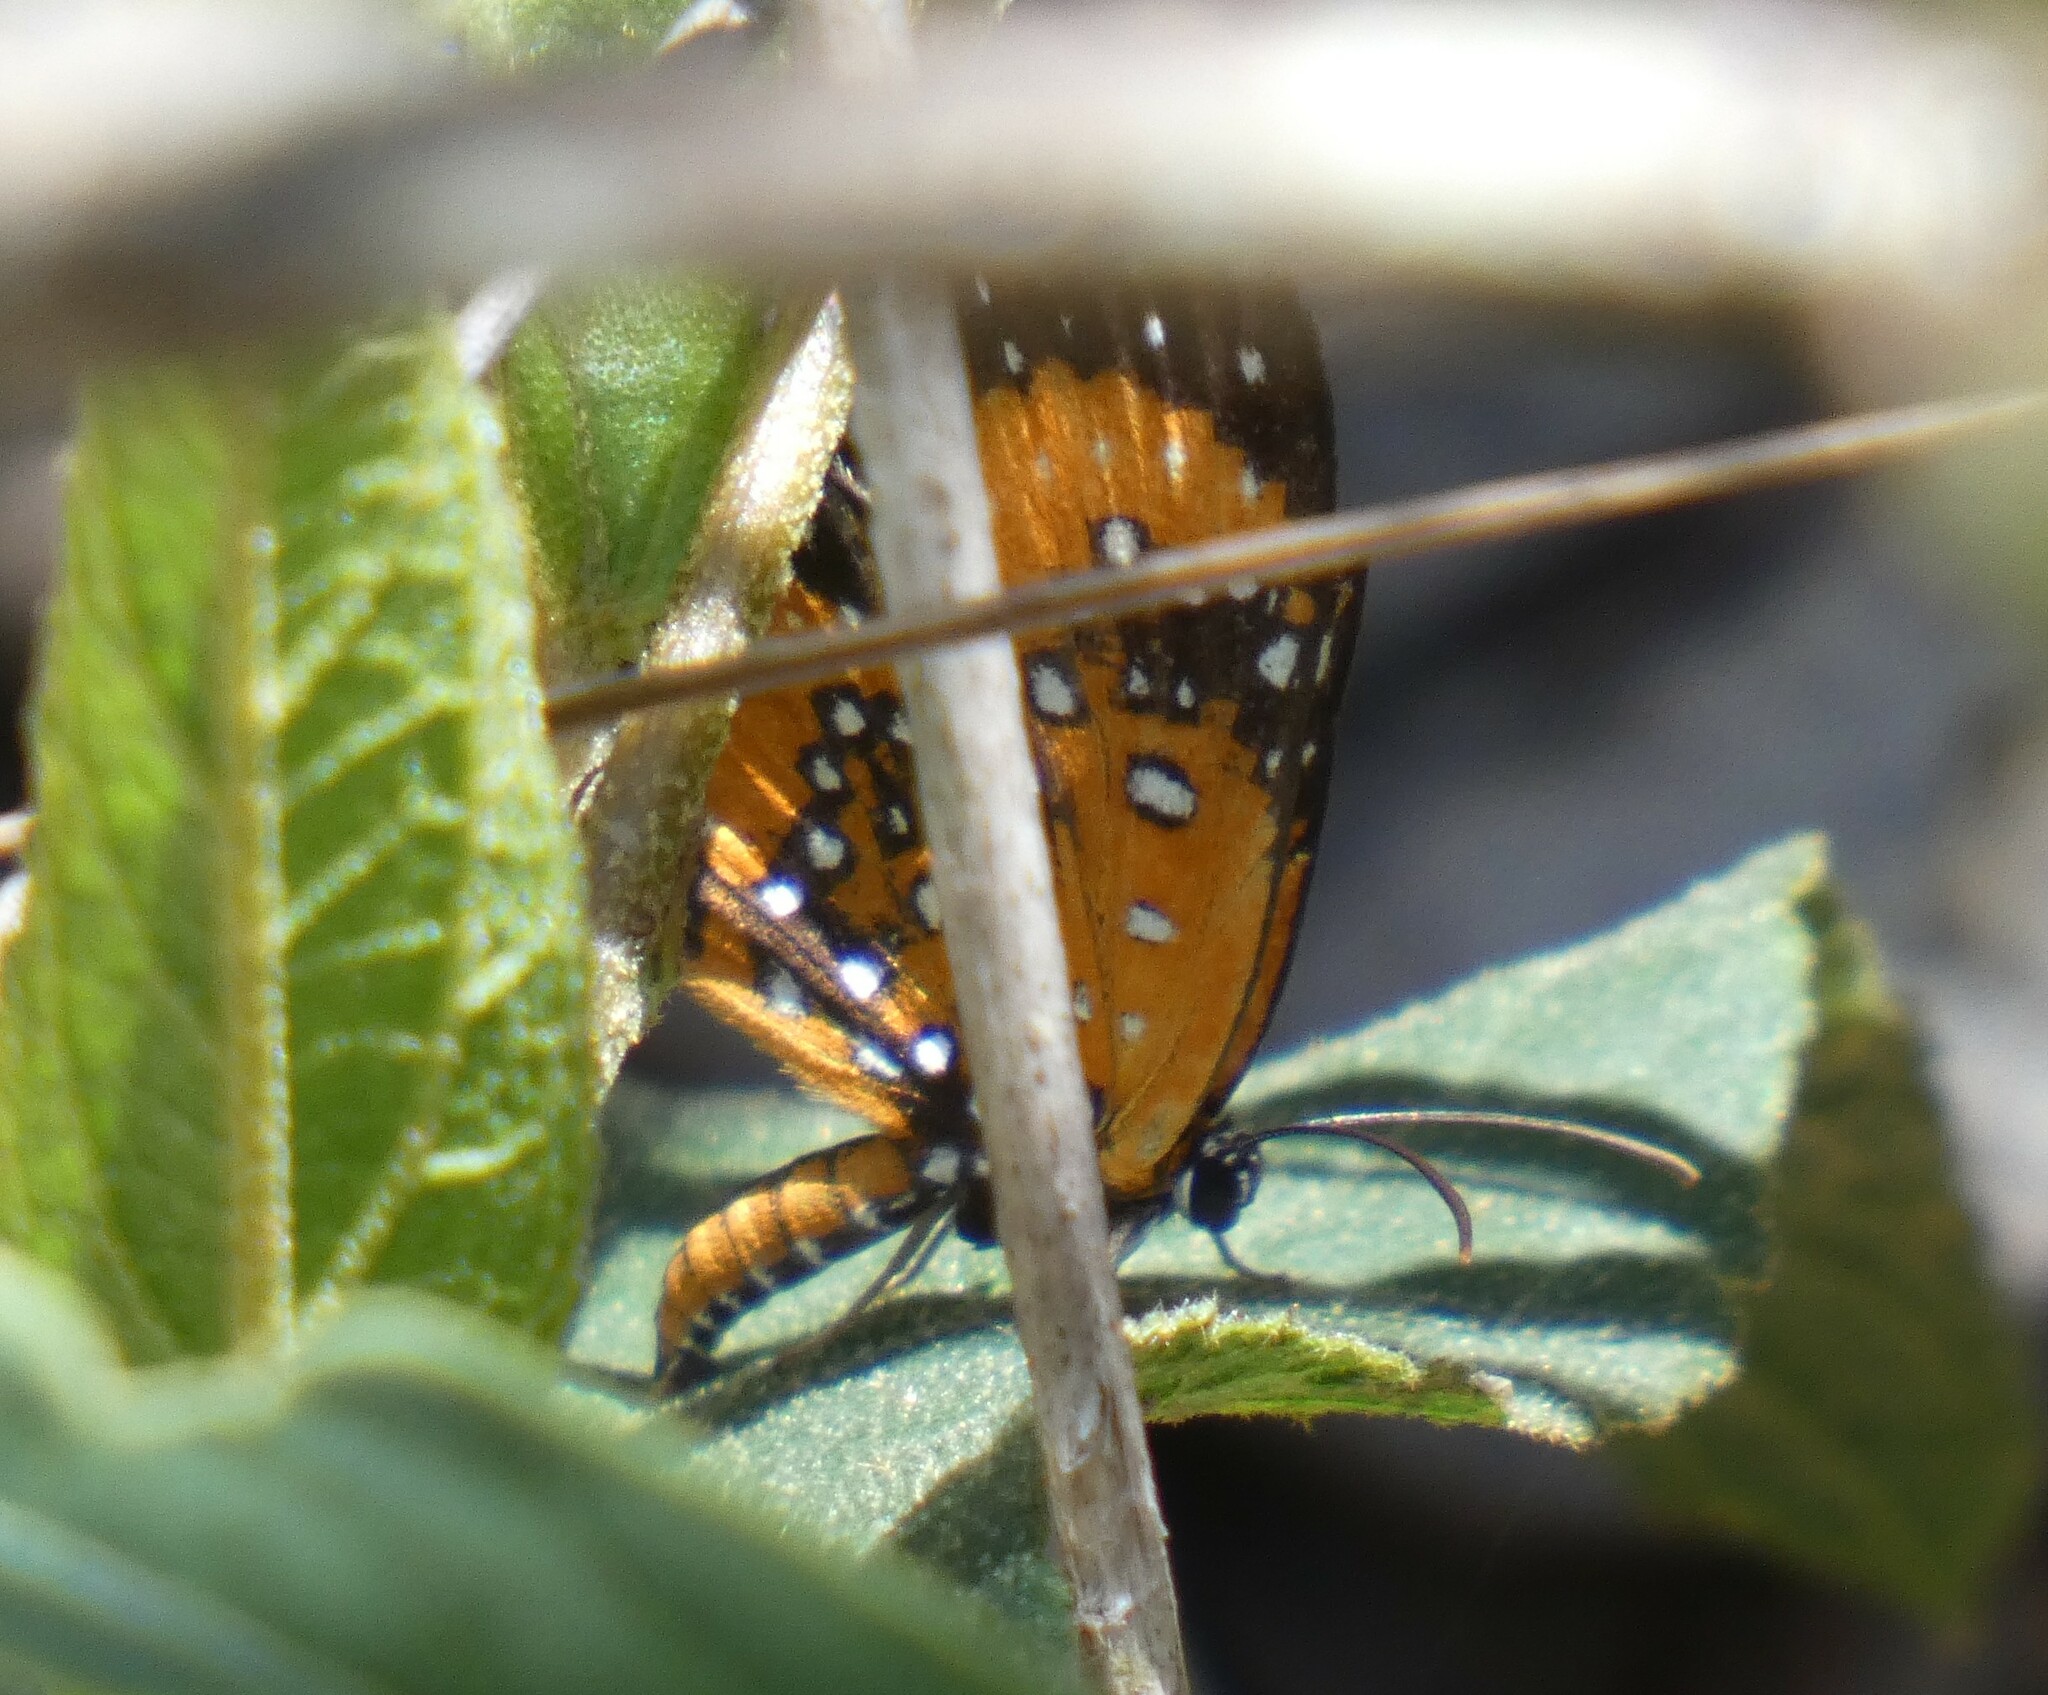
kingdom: Animalia
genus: Lemonias
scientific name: Lemonias
